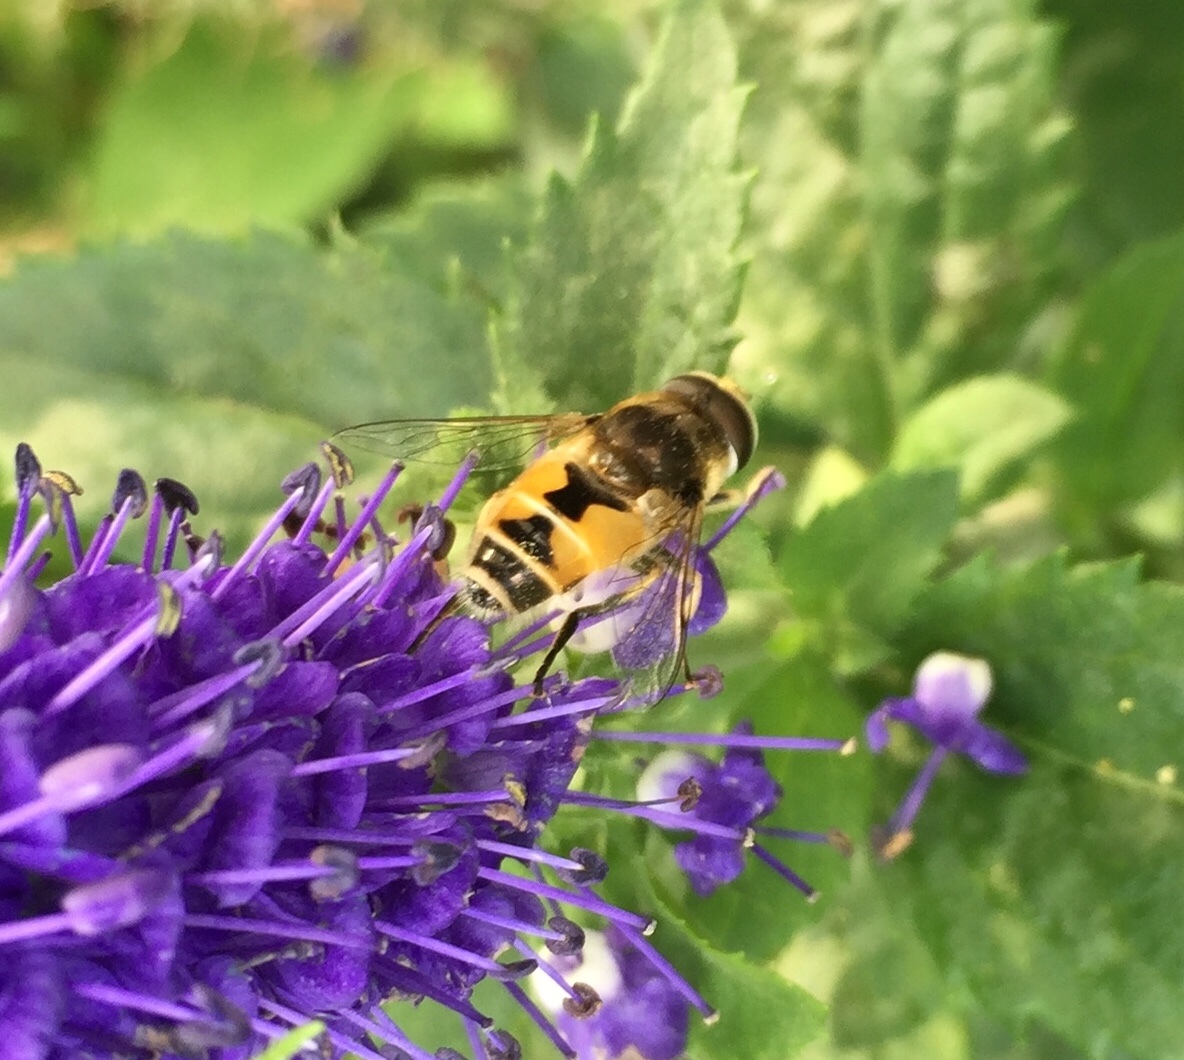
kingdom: Animalia
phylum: Arthropoda
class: Insecta
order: Diptera
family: Syrphidae
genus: Eristalis
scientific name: Eristalis arbustorum
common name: Hover fly
